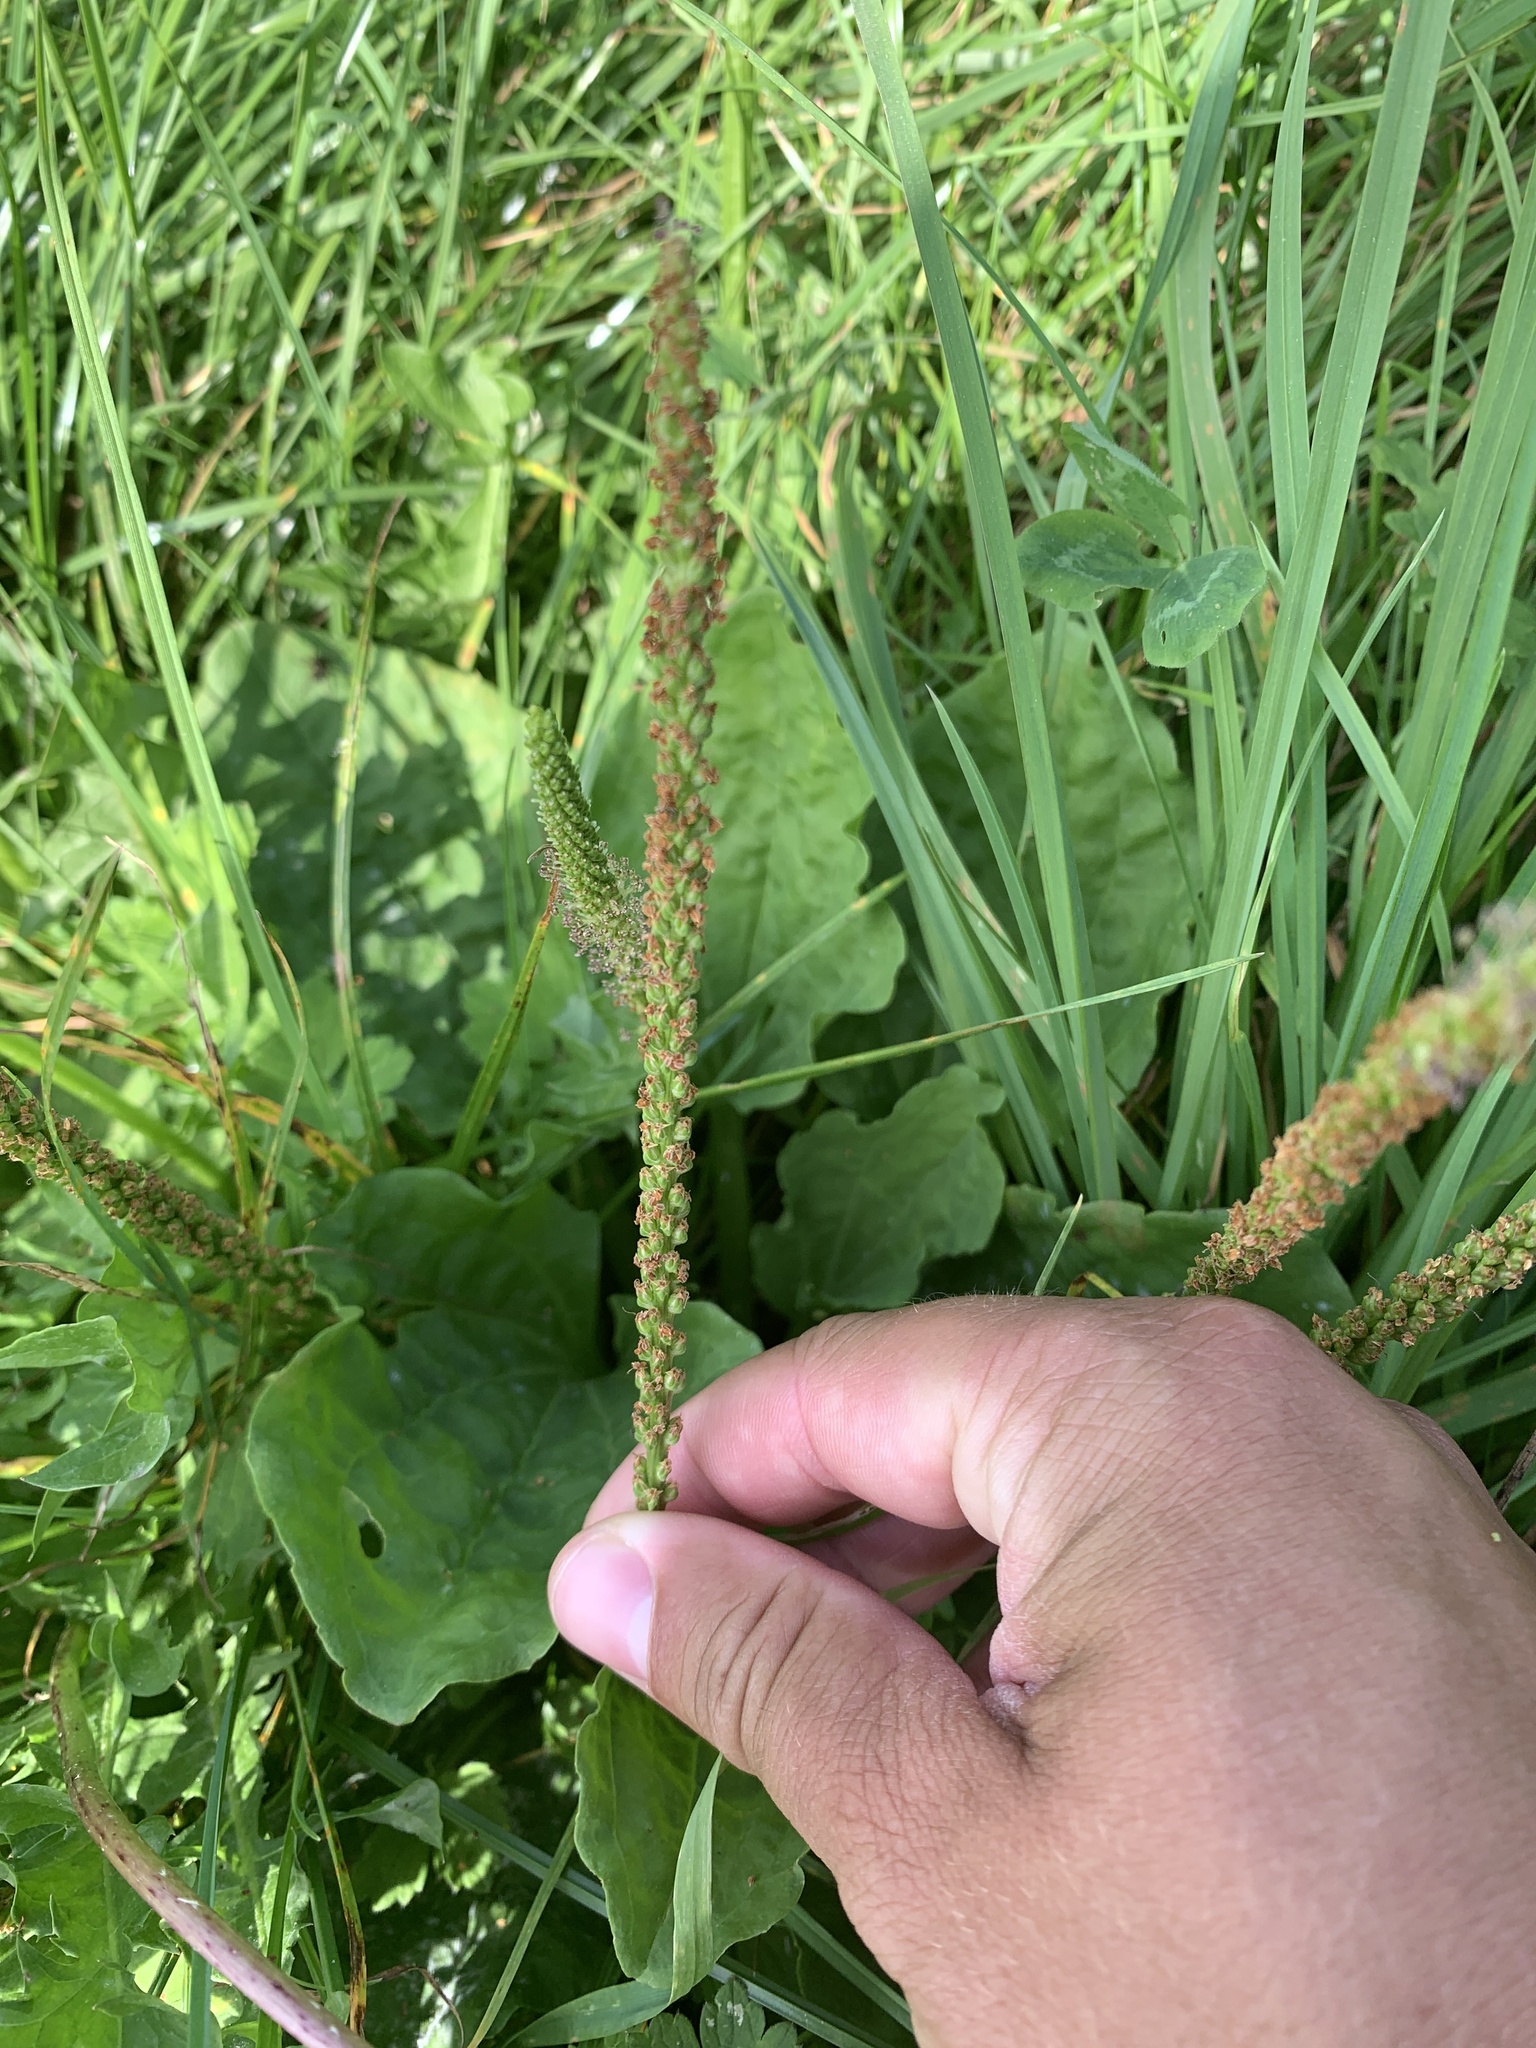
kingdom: Plantae
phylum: Tracheophyta
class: Magnoliopsida
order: Lamiales
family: Plantaginaceae
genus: Plantago
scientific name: Plantago major
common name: Common plantain
